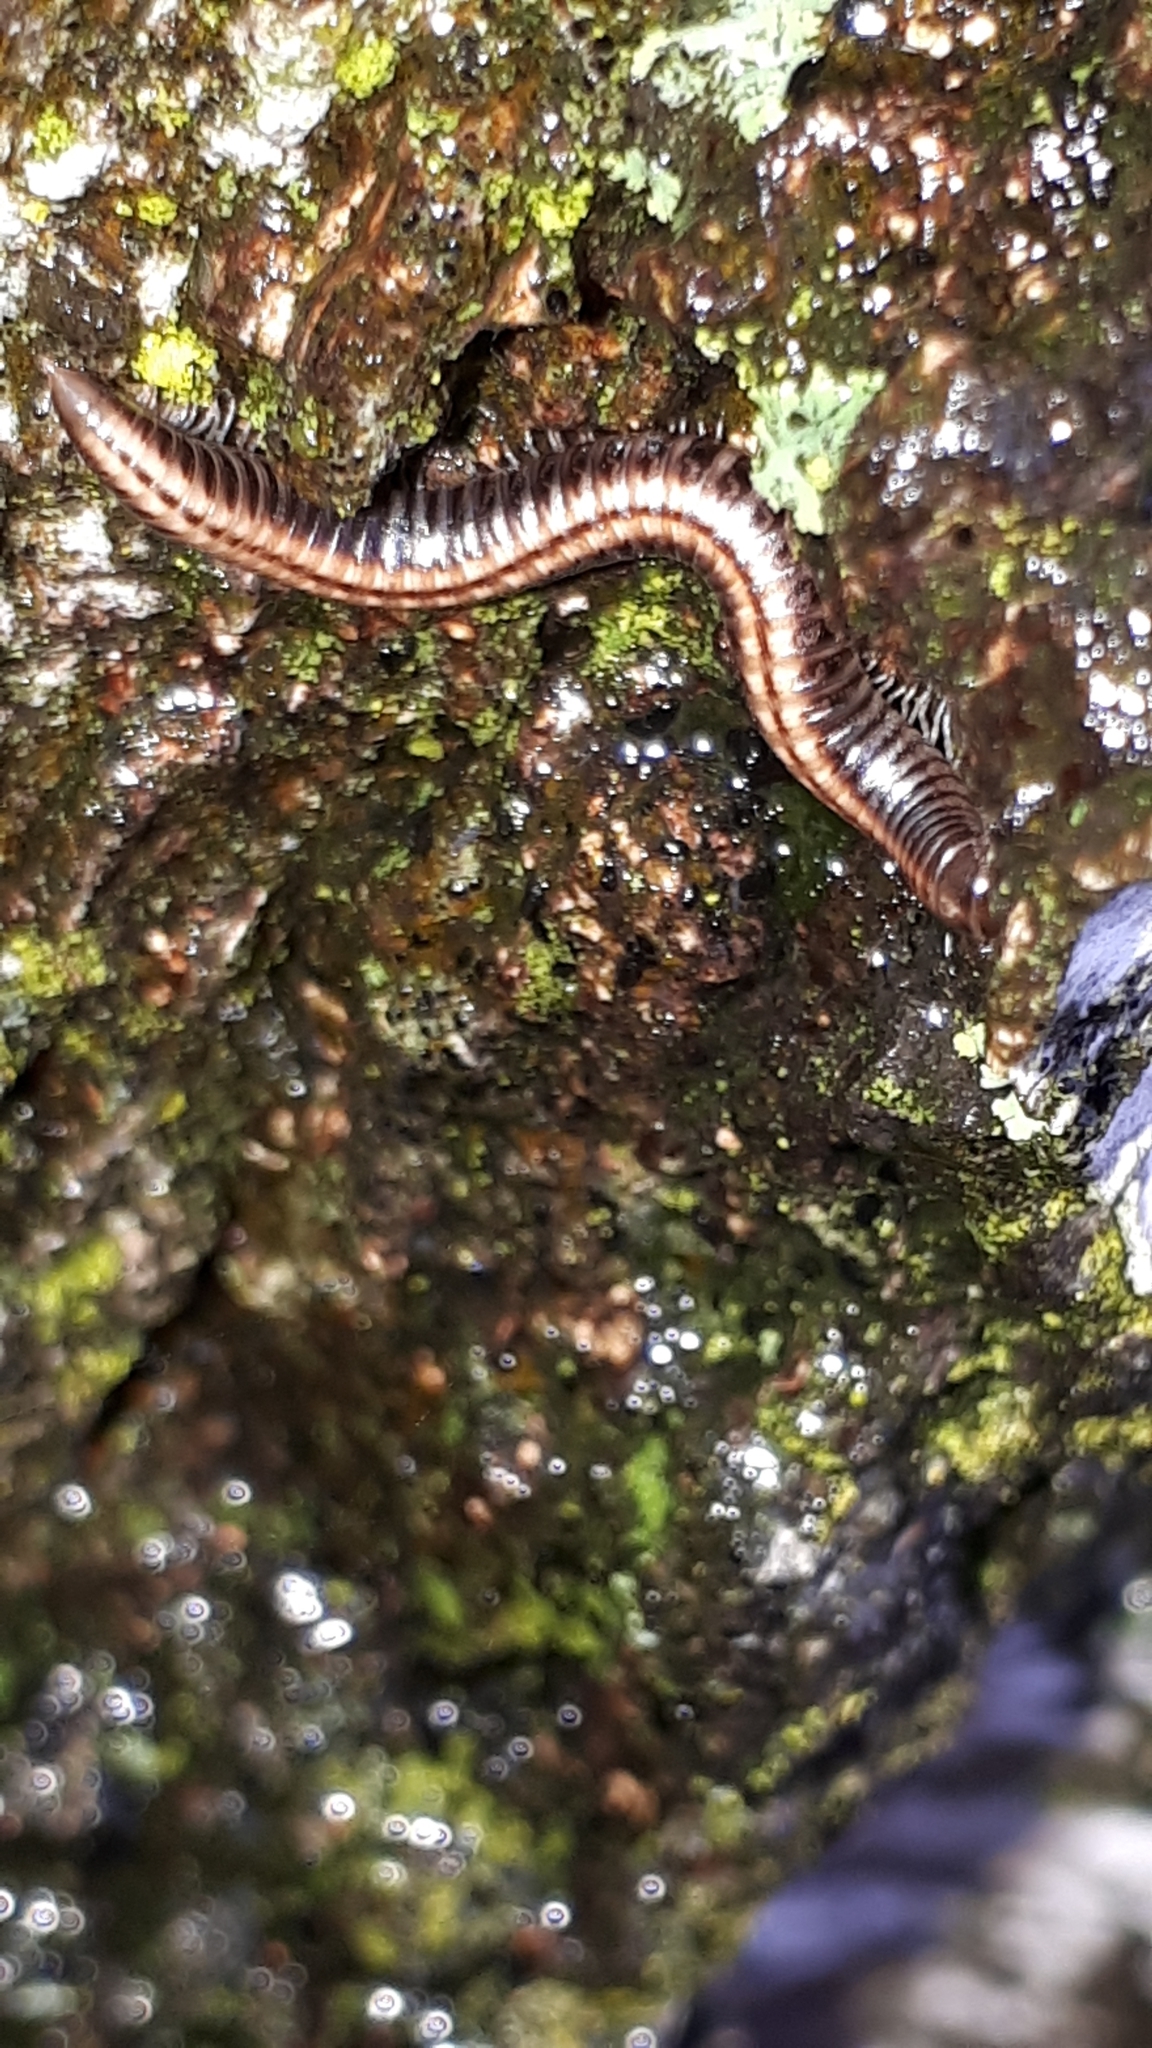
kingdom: Animalia
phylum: Arthropoda
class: Diplopoda
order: Julida
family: Julidae
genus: Ommatoiulus
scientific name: Ommatoiulus sabulosus
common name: Striped millipede
